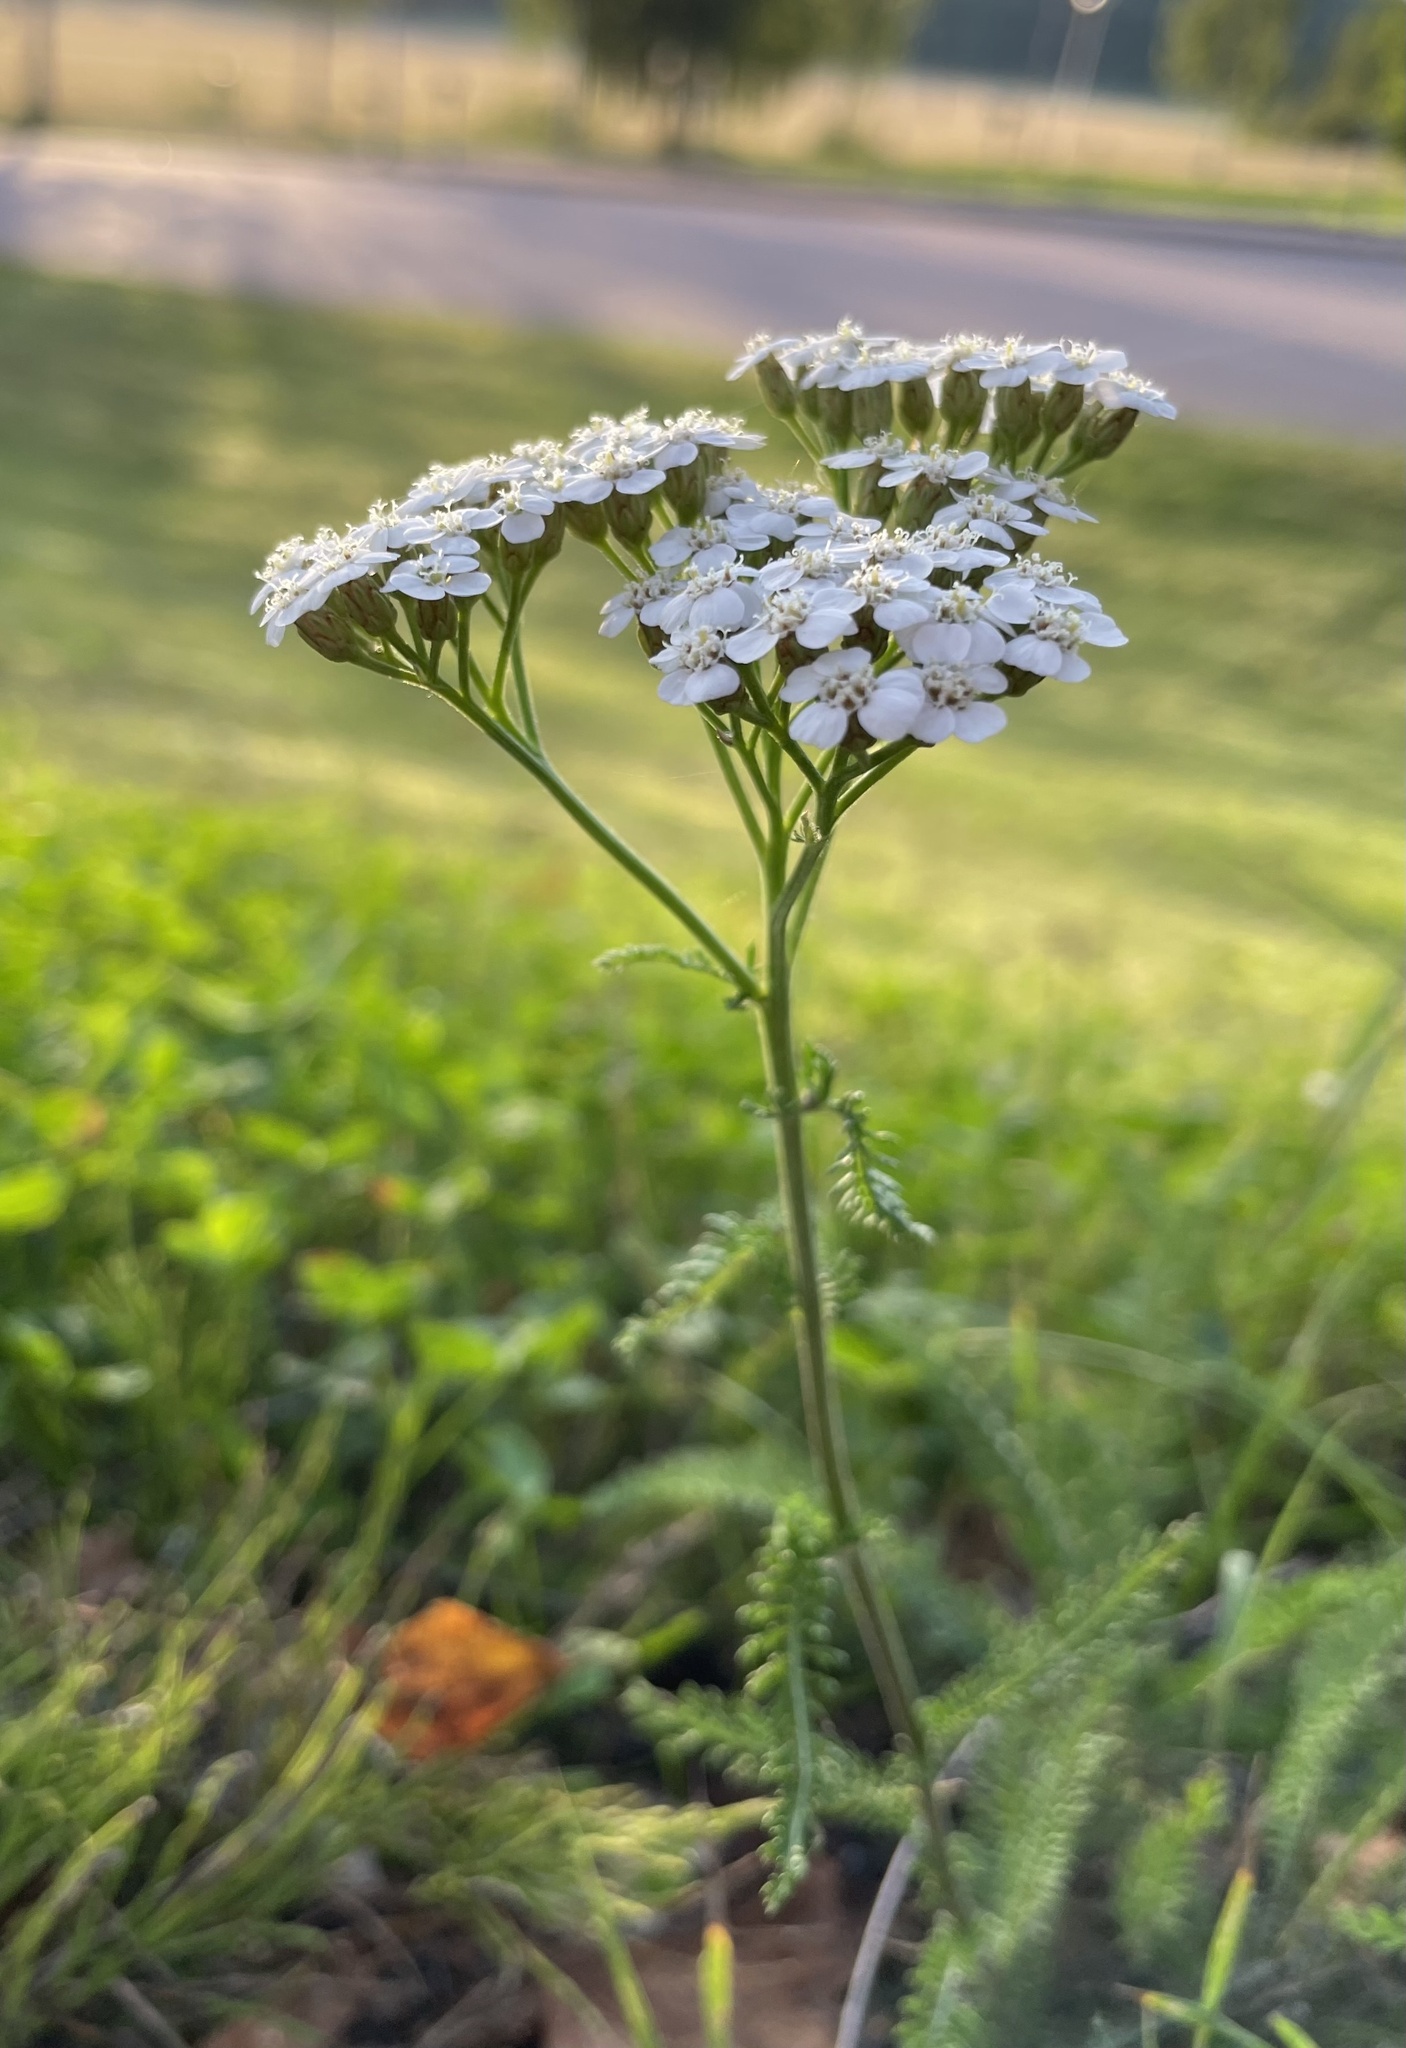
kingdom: Plantae
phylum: Tracheophyta
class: Magnoliopsida
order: Asterales
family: Asteraceae
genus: Achillea
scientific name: Achillea millefolium
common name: Yarrow
